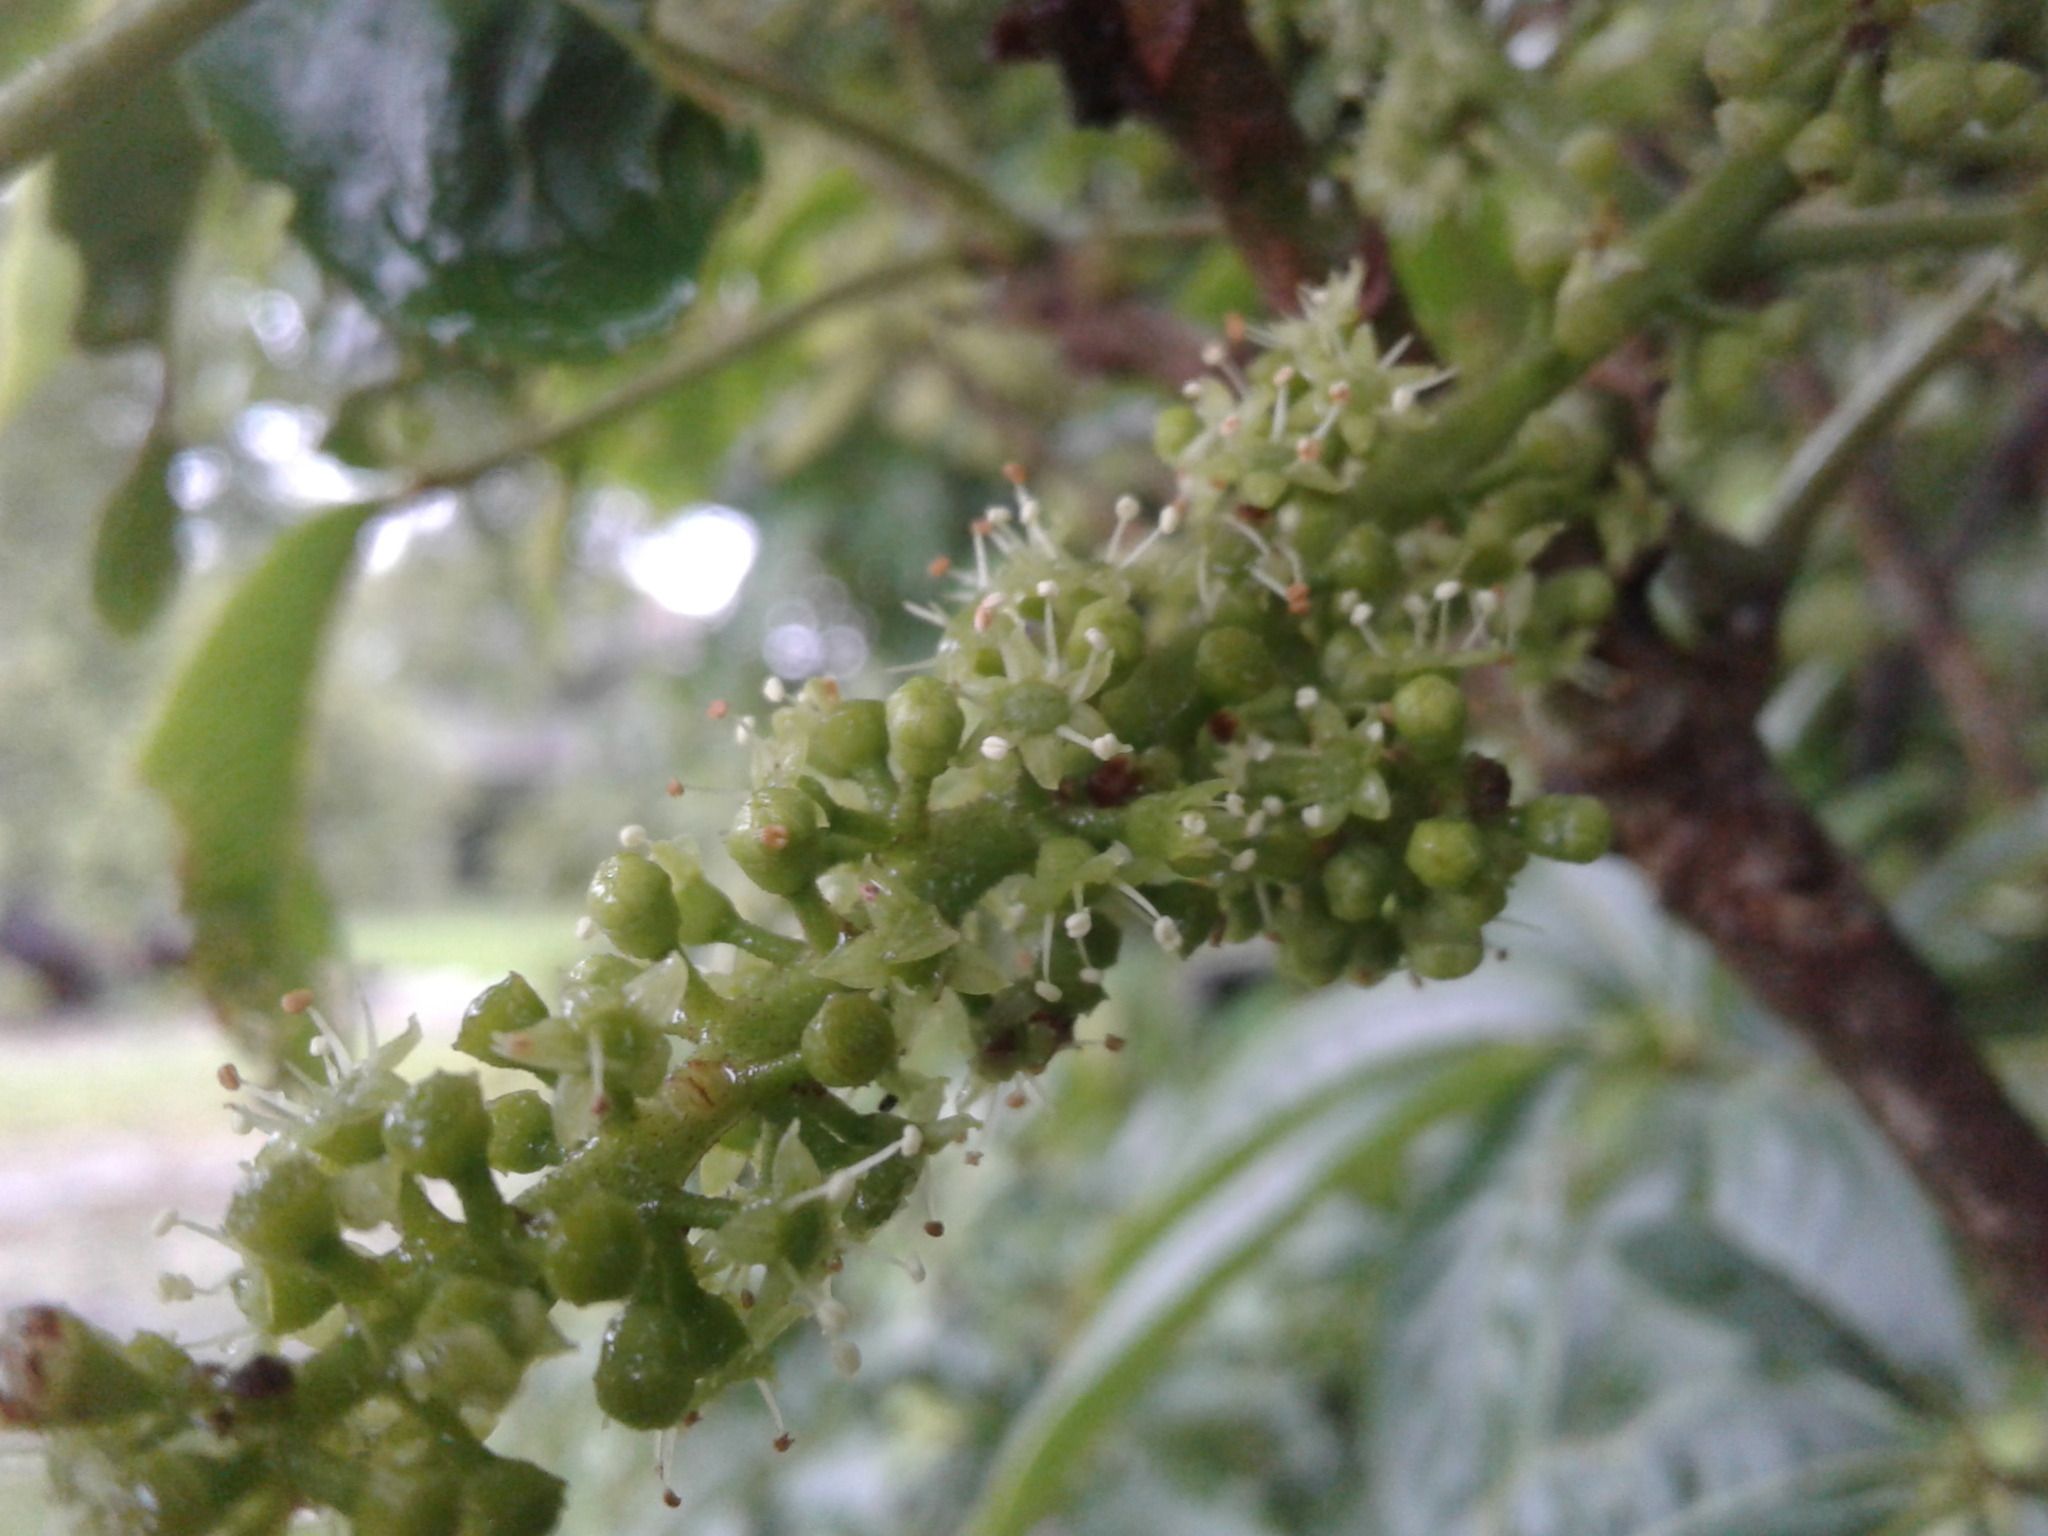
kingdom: Plantae
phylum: Tracheophyta
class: Magnoliopsida
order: Apiales
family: Araliaceae
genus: Schefflera
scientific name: Schefflera digitata
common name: Pate
